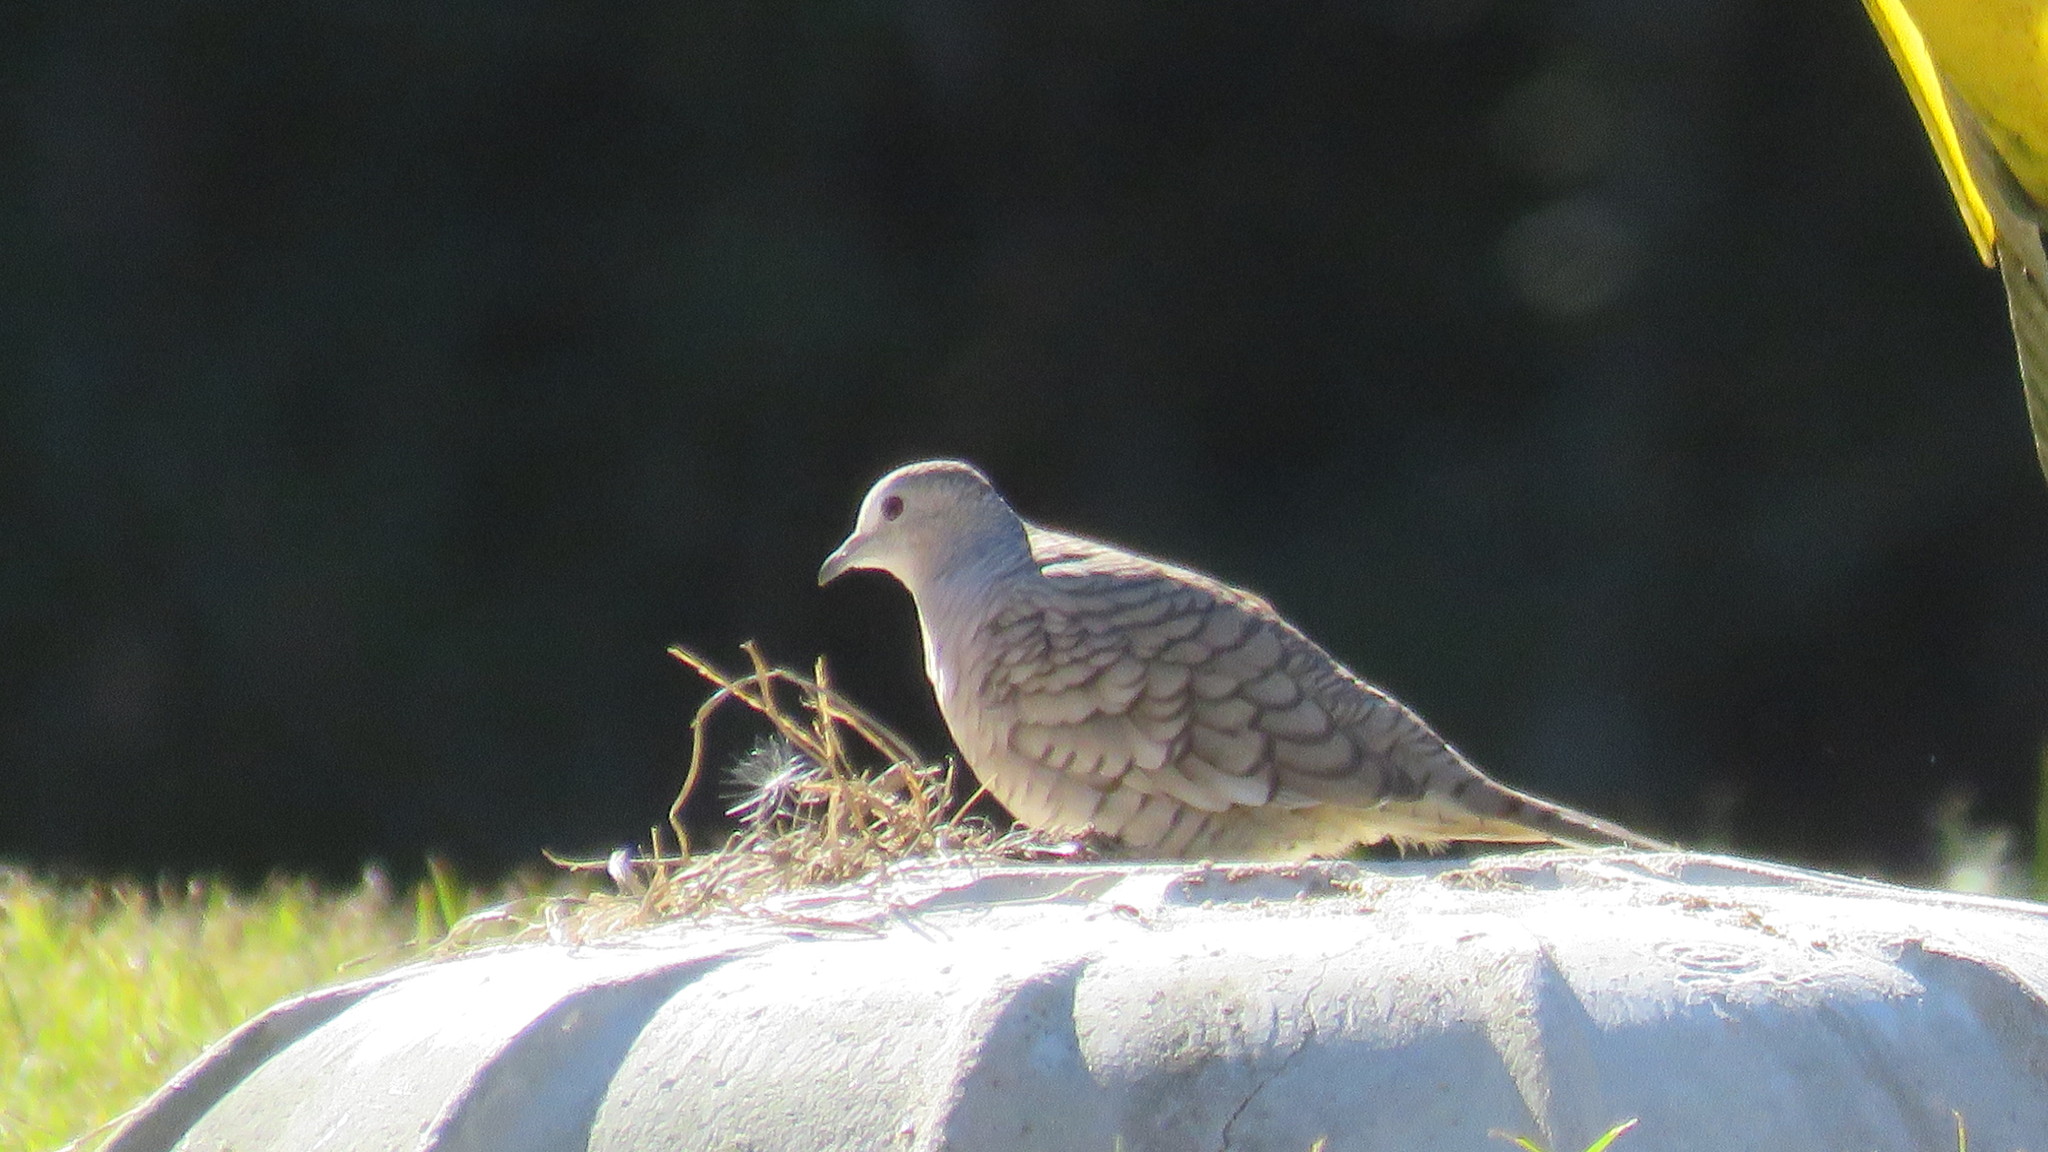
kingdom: Animalia
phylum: Chordata
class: Aves
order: Columbiformes
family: Columbidae
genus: Columbina
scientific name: Columbina inca
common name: Inca dove
